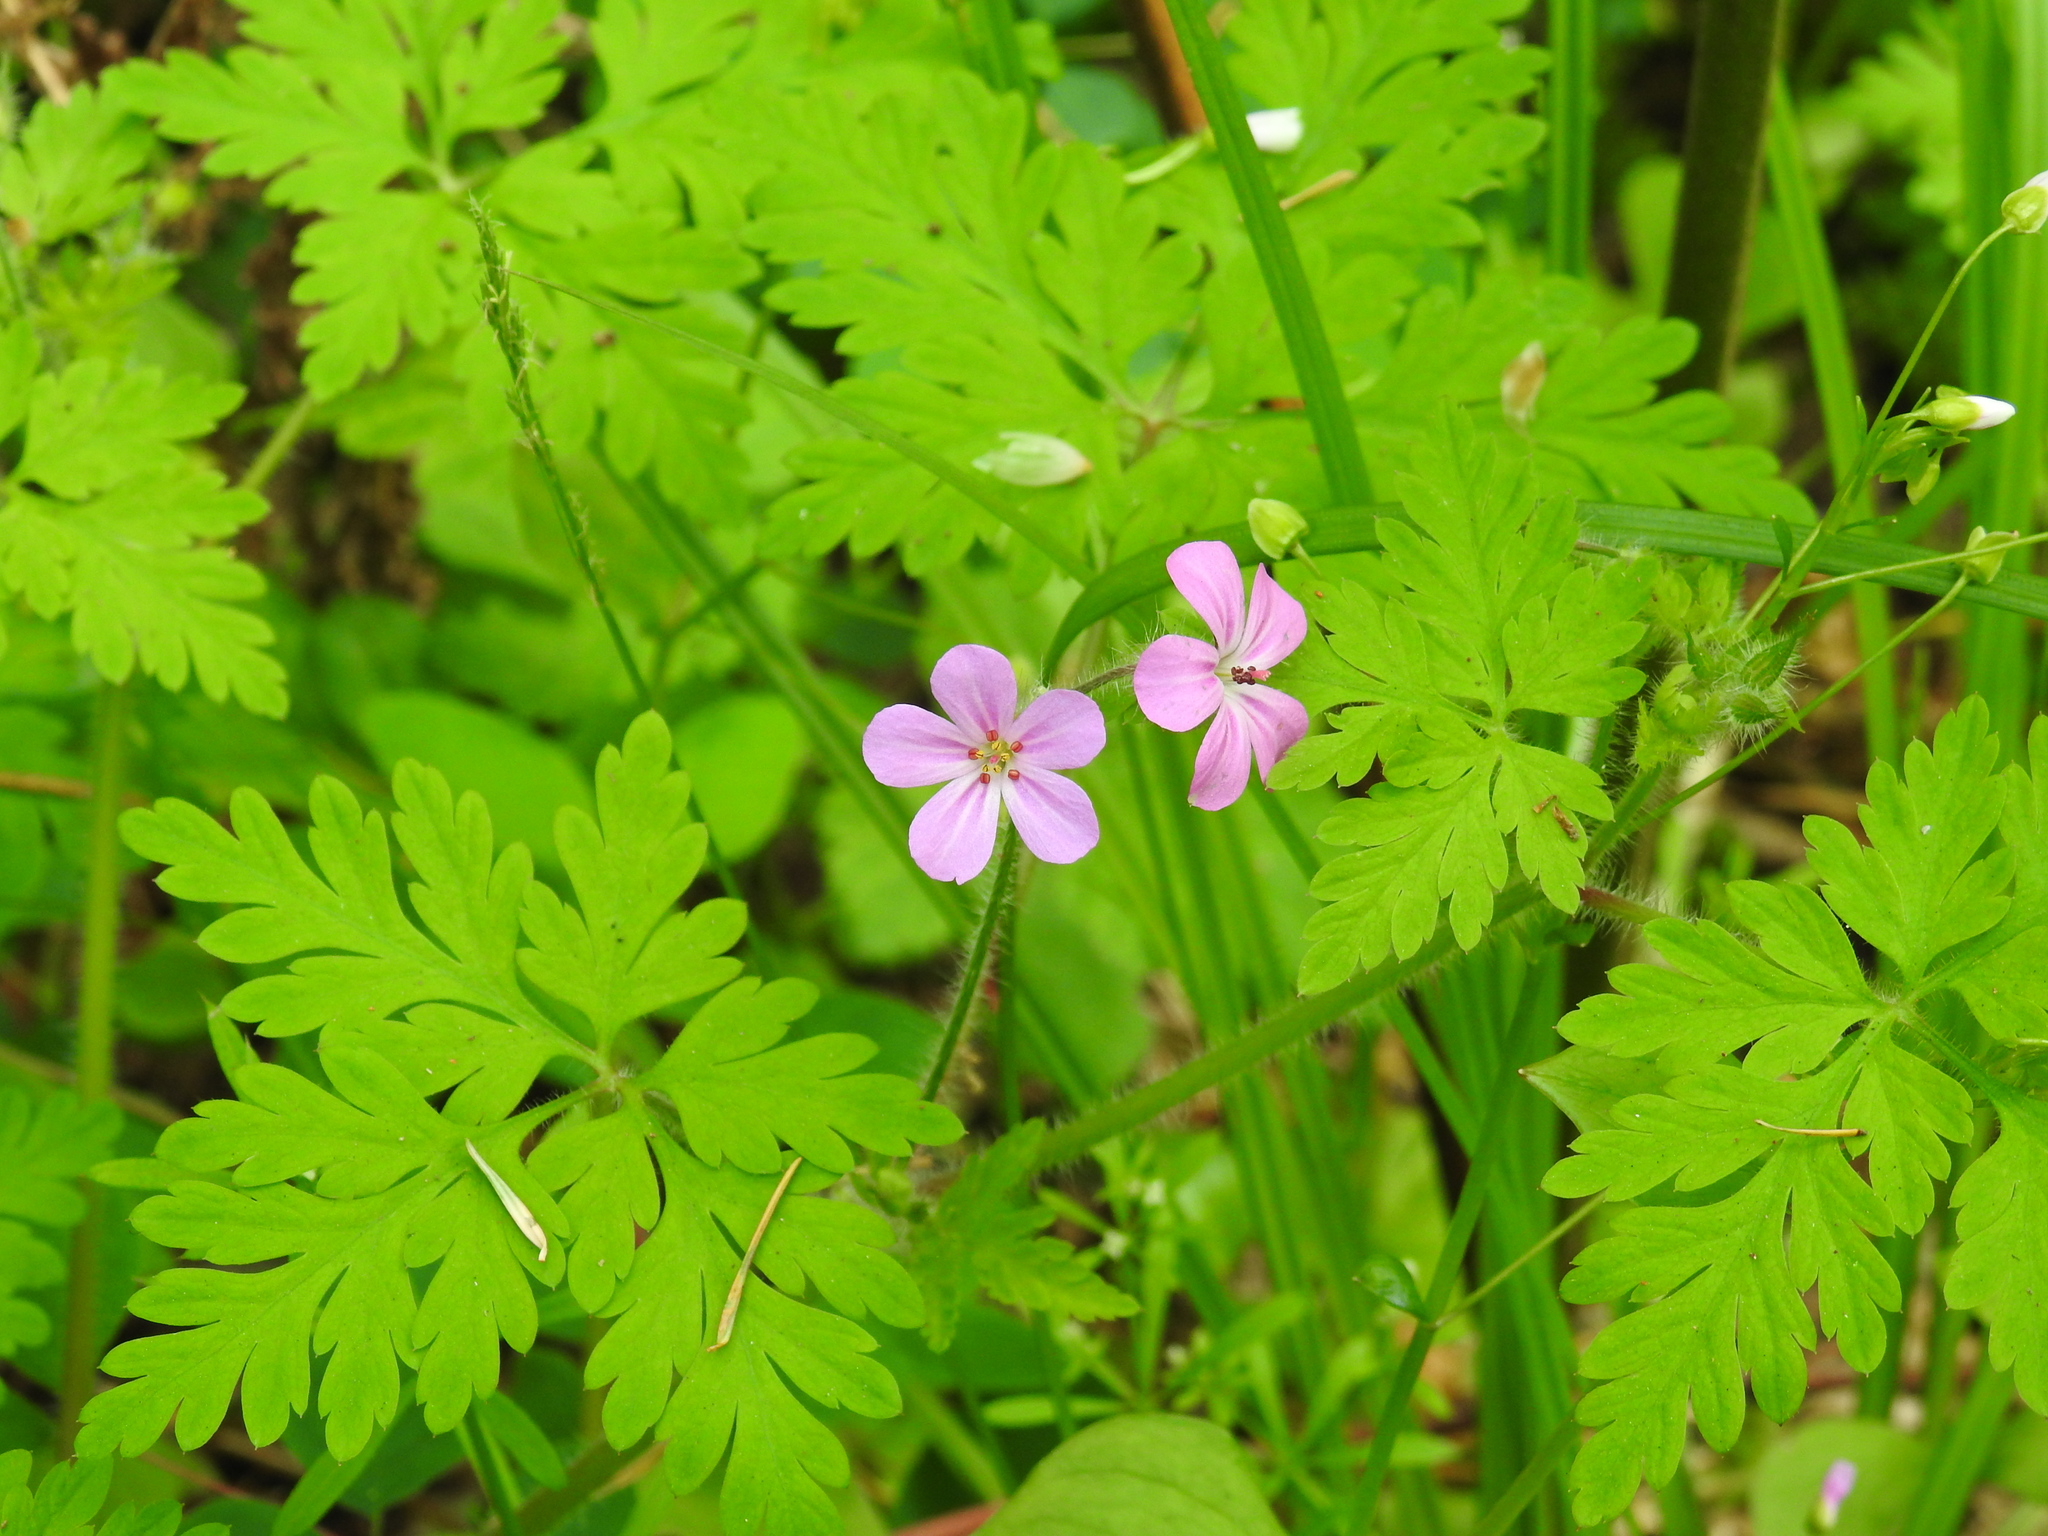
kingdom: Plantae
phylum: Tracheophyta
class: Magnoliopsida
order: Geraniales
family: Geraniaceae
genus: Geranium
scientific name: Geranium robertianum
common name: Herb-robert
